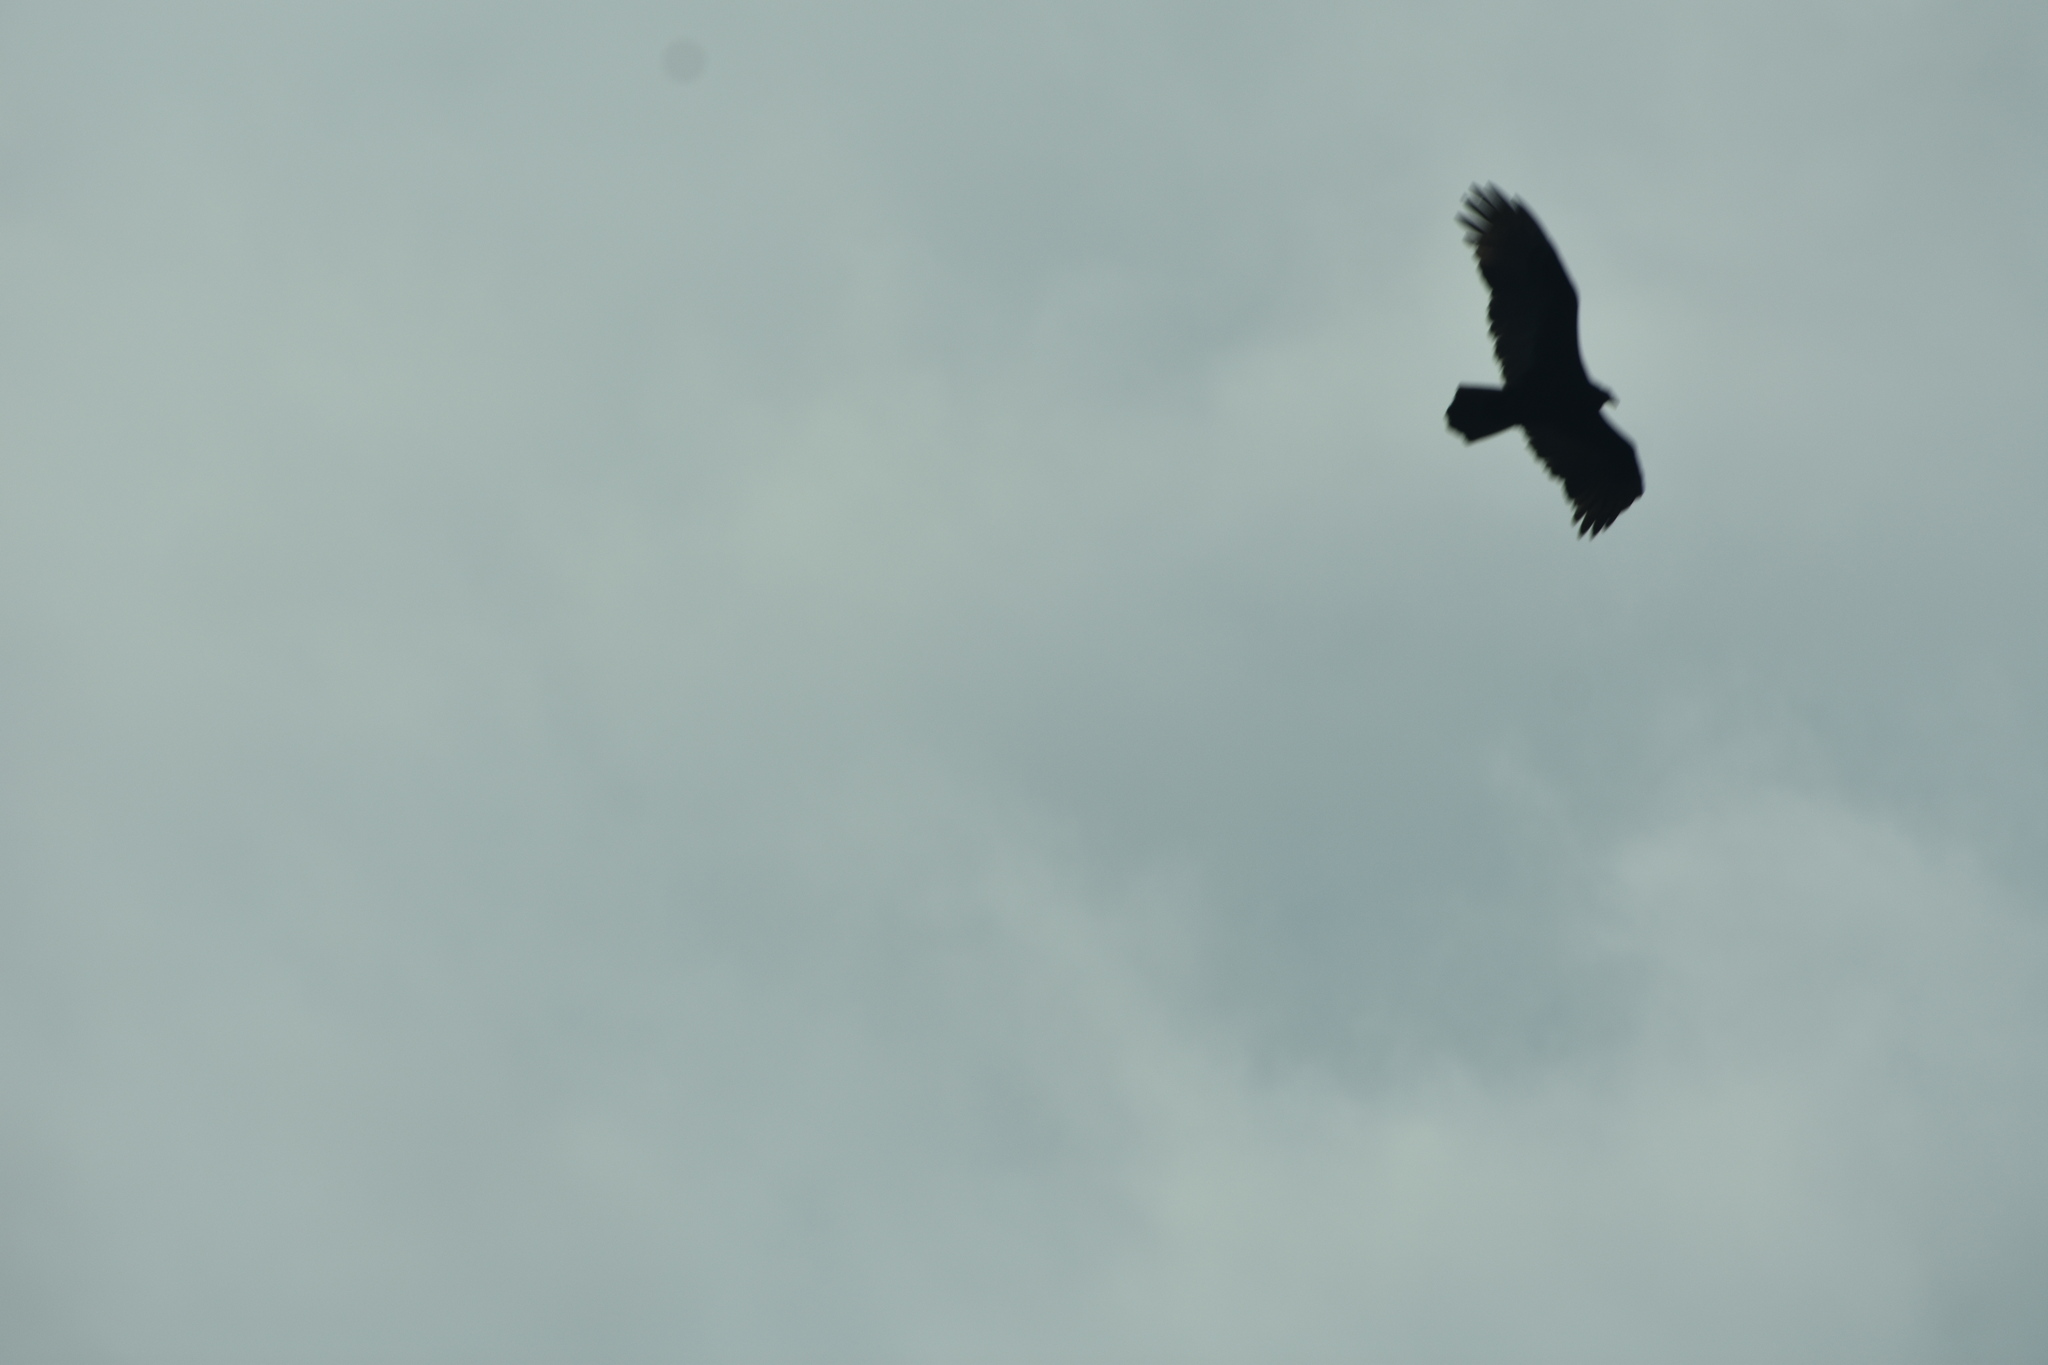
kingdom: Animalia
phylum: Chordata
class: Aves
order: Accipitriformes
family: Cathartidae
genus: Cathartes
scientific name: Cathartes aura
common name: Turkey vulture
